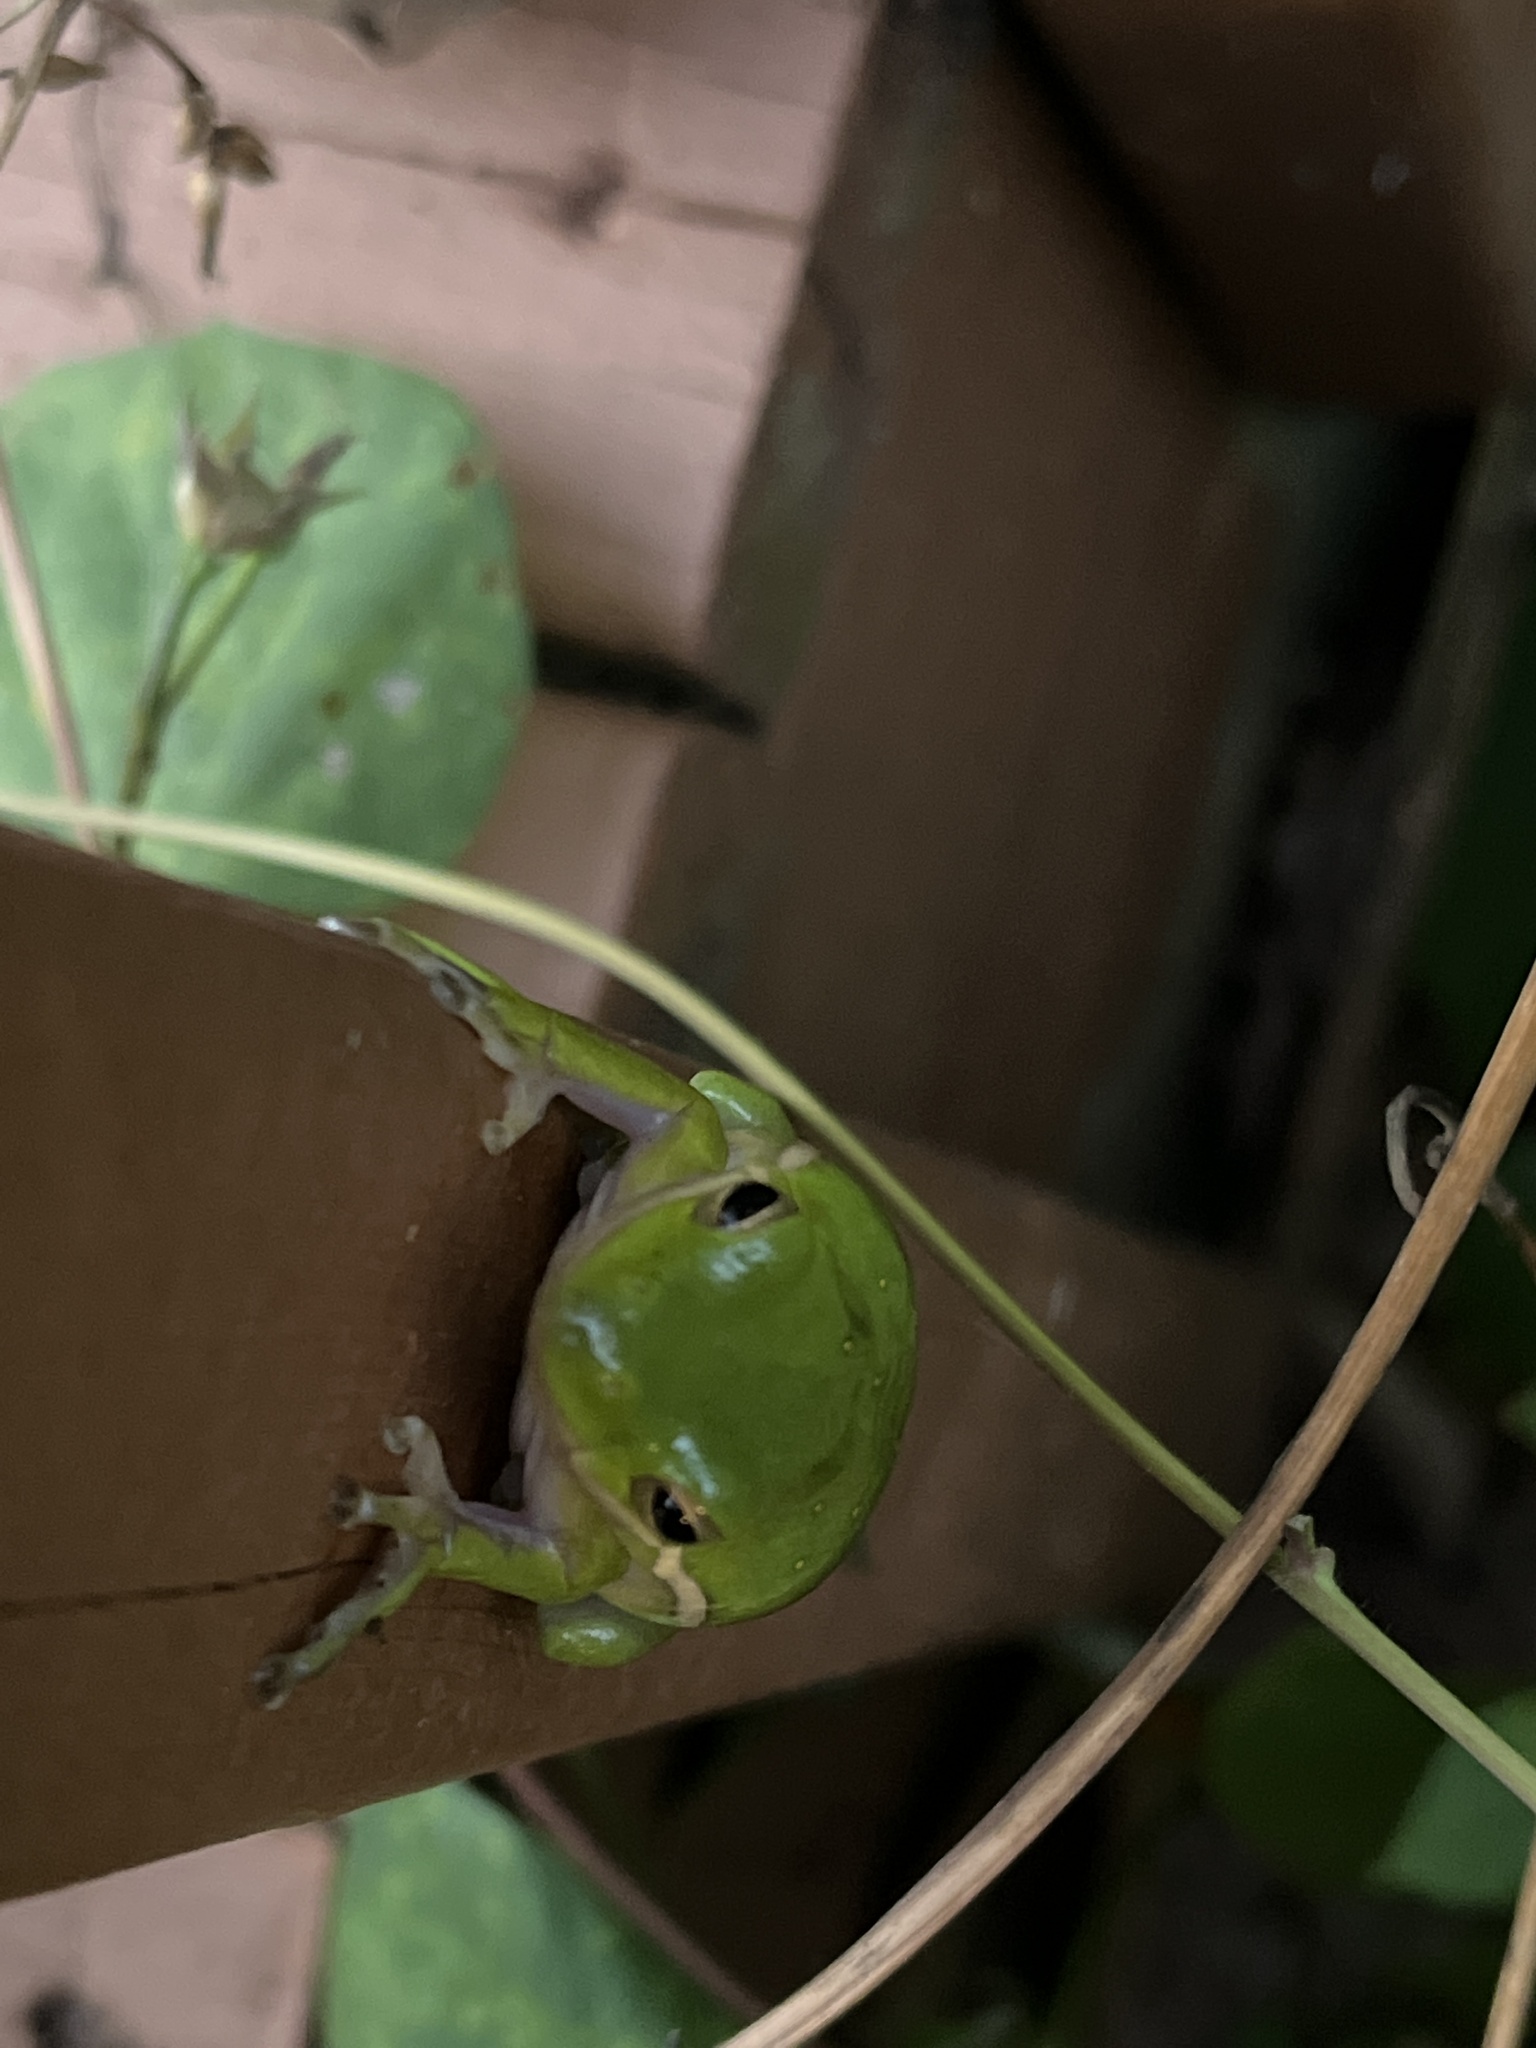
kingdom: Animalia
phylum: Chordata
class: Amphibia
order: Anura
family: Hylidae
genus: Dryophytes
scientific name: Dryophytes cinereus
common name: Green treefrog
